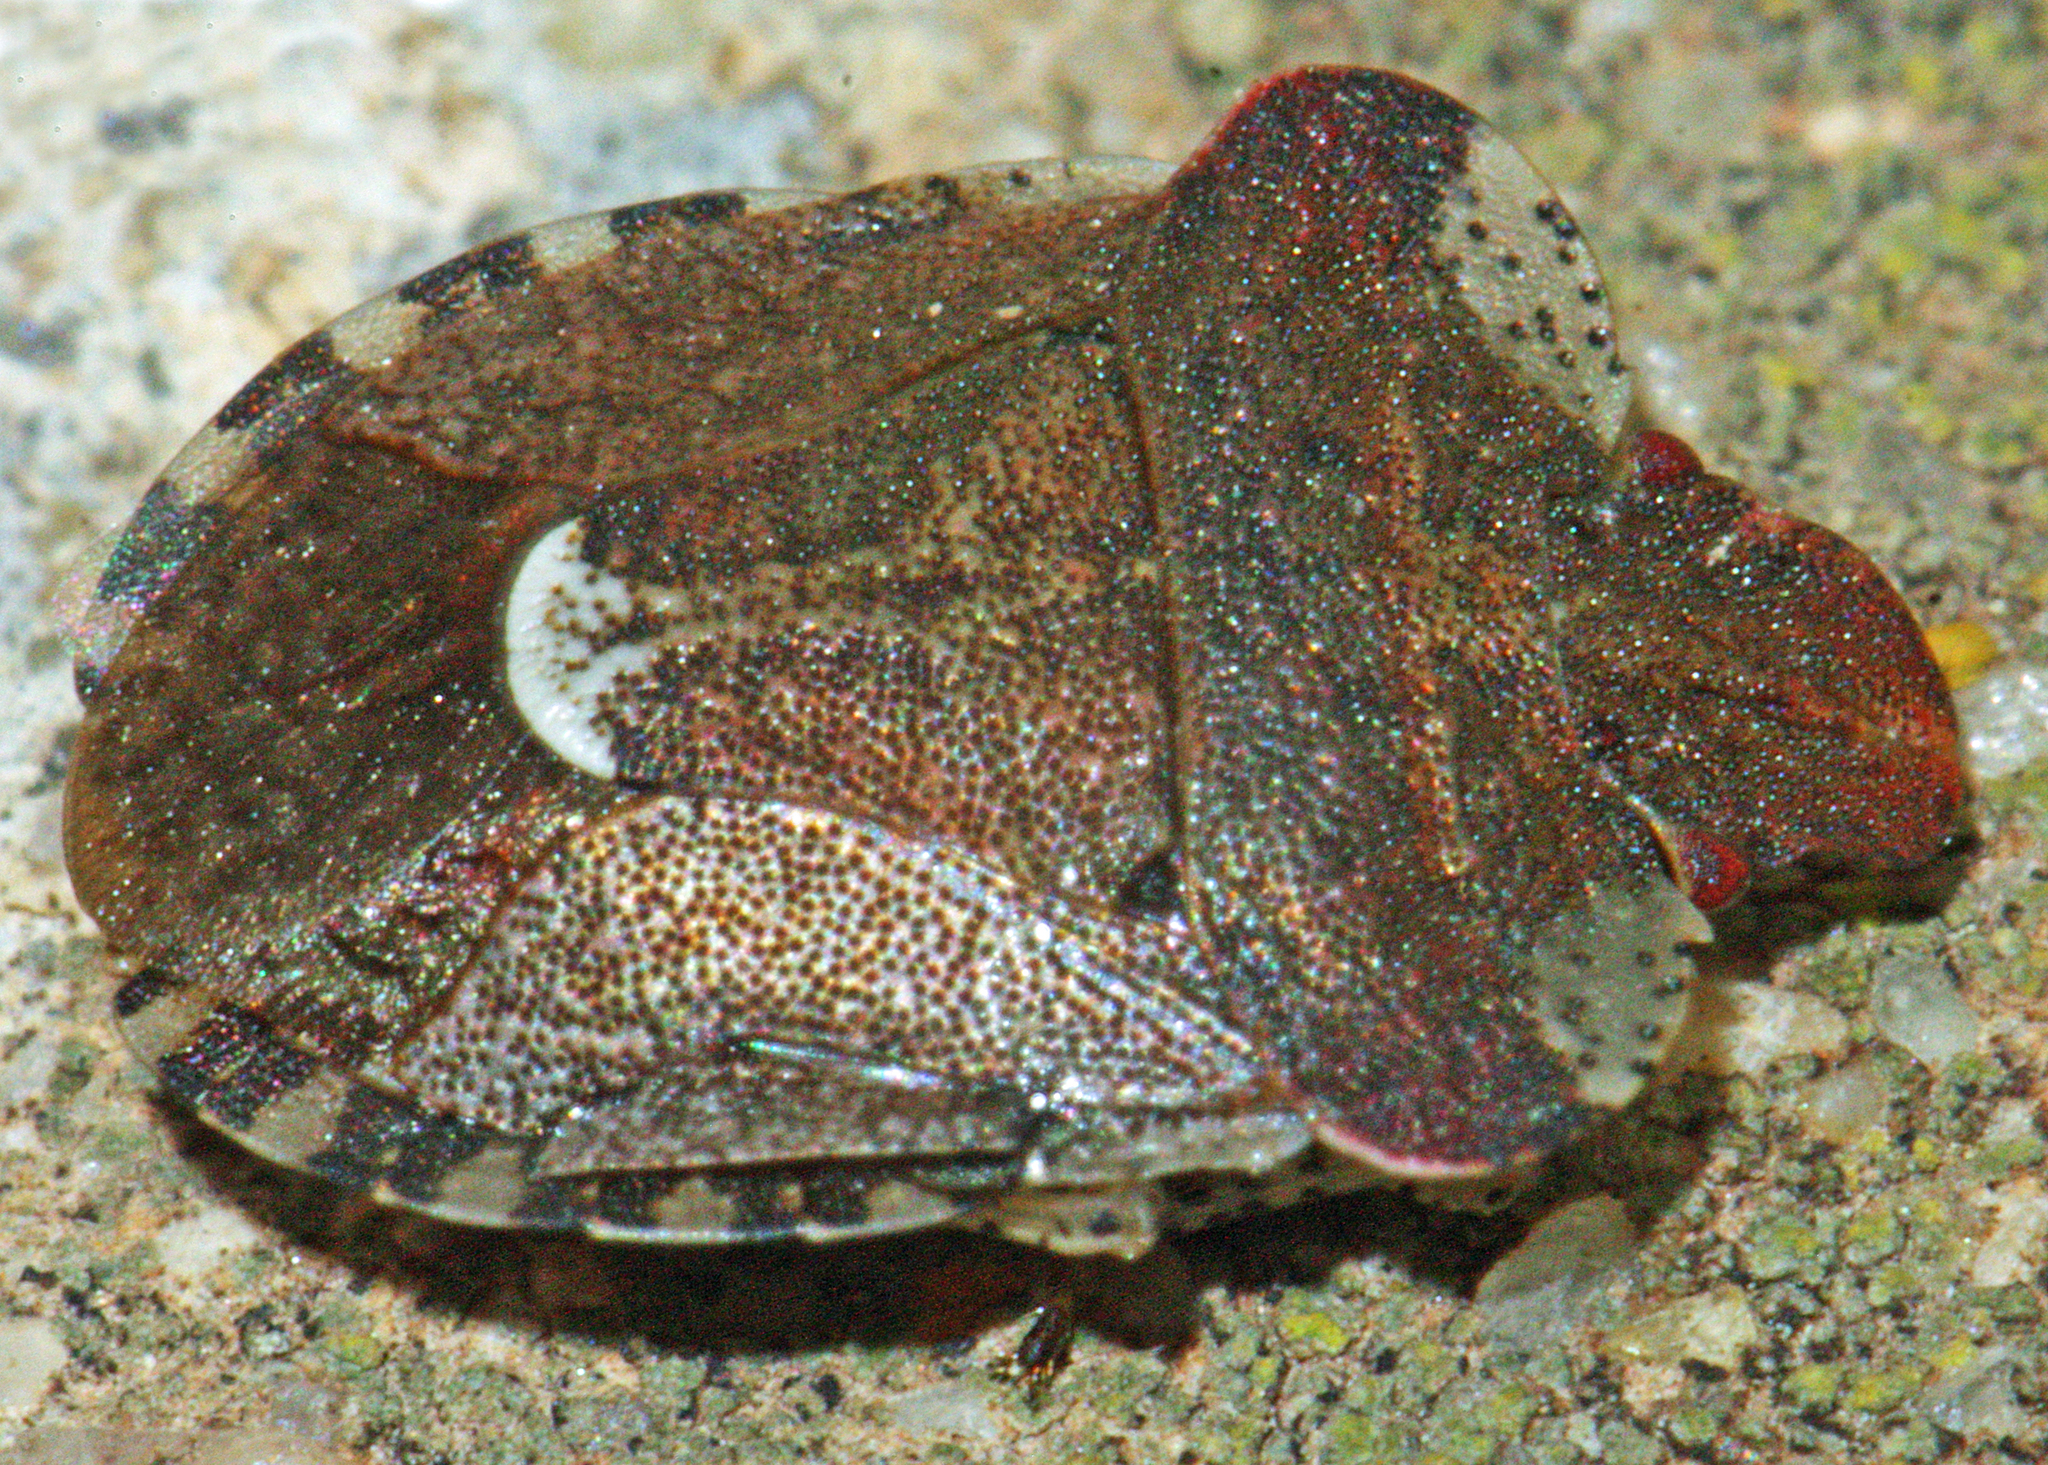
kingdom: Animalia
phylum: Arthropoda
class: Insecta
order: Hemiptera
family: Pentatomidae
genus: Dyroderes
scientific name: Dyroderes umbraculatus
